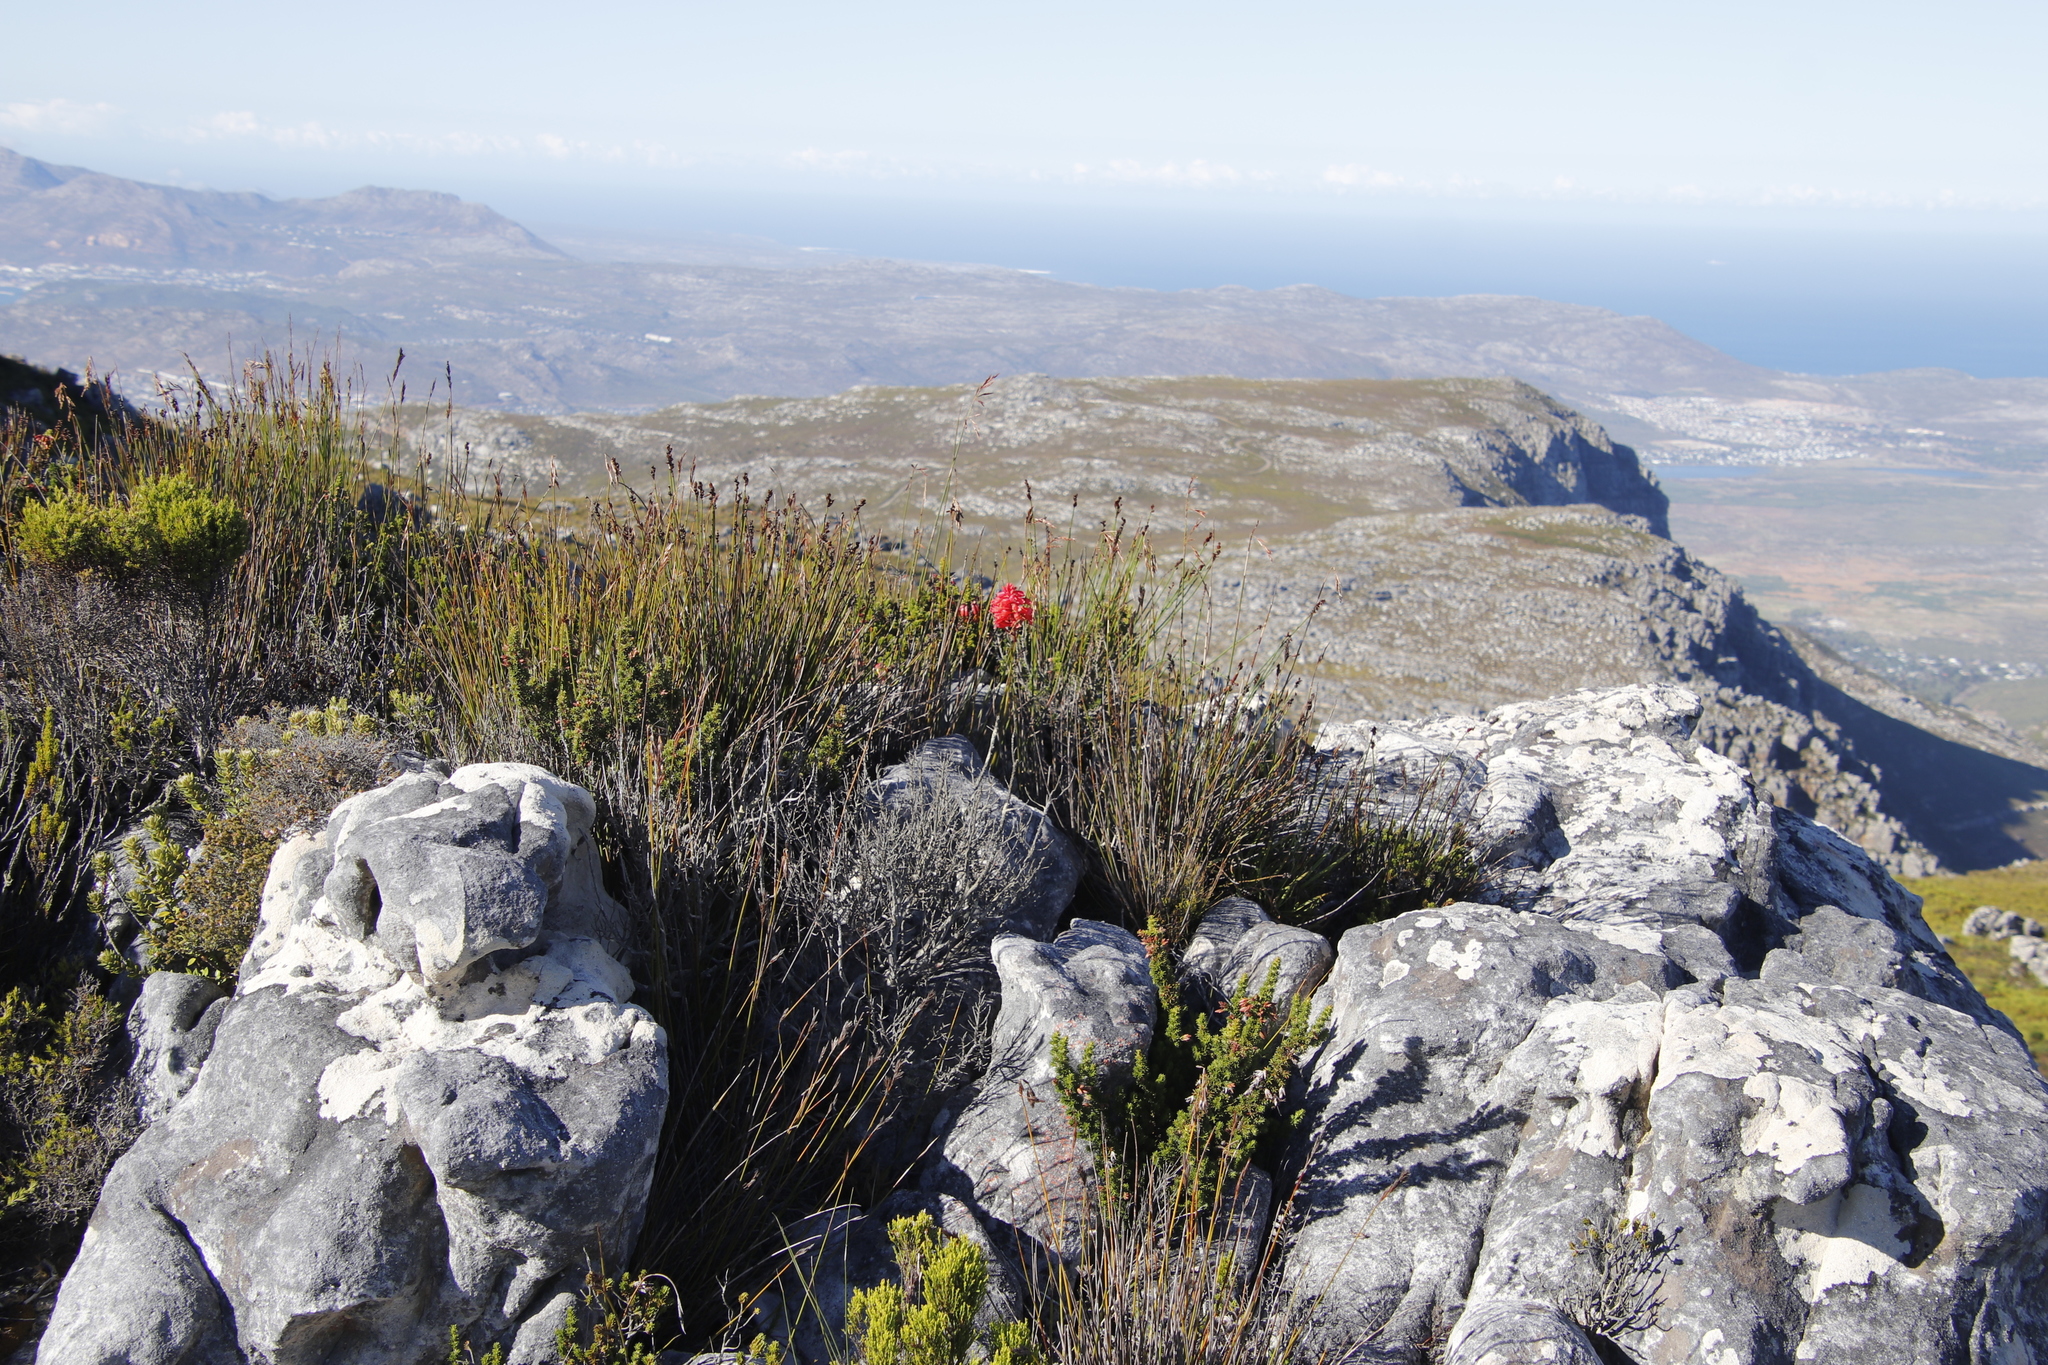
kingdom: Plantae
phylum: Tracheophyta
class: Liliopsida
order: Asparagales
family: Orchidaceae
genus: Disa
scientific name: Disa ferruginea
